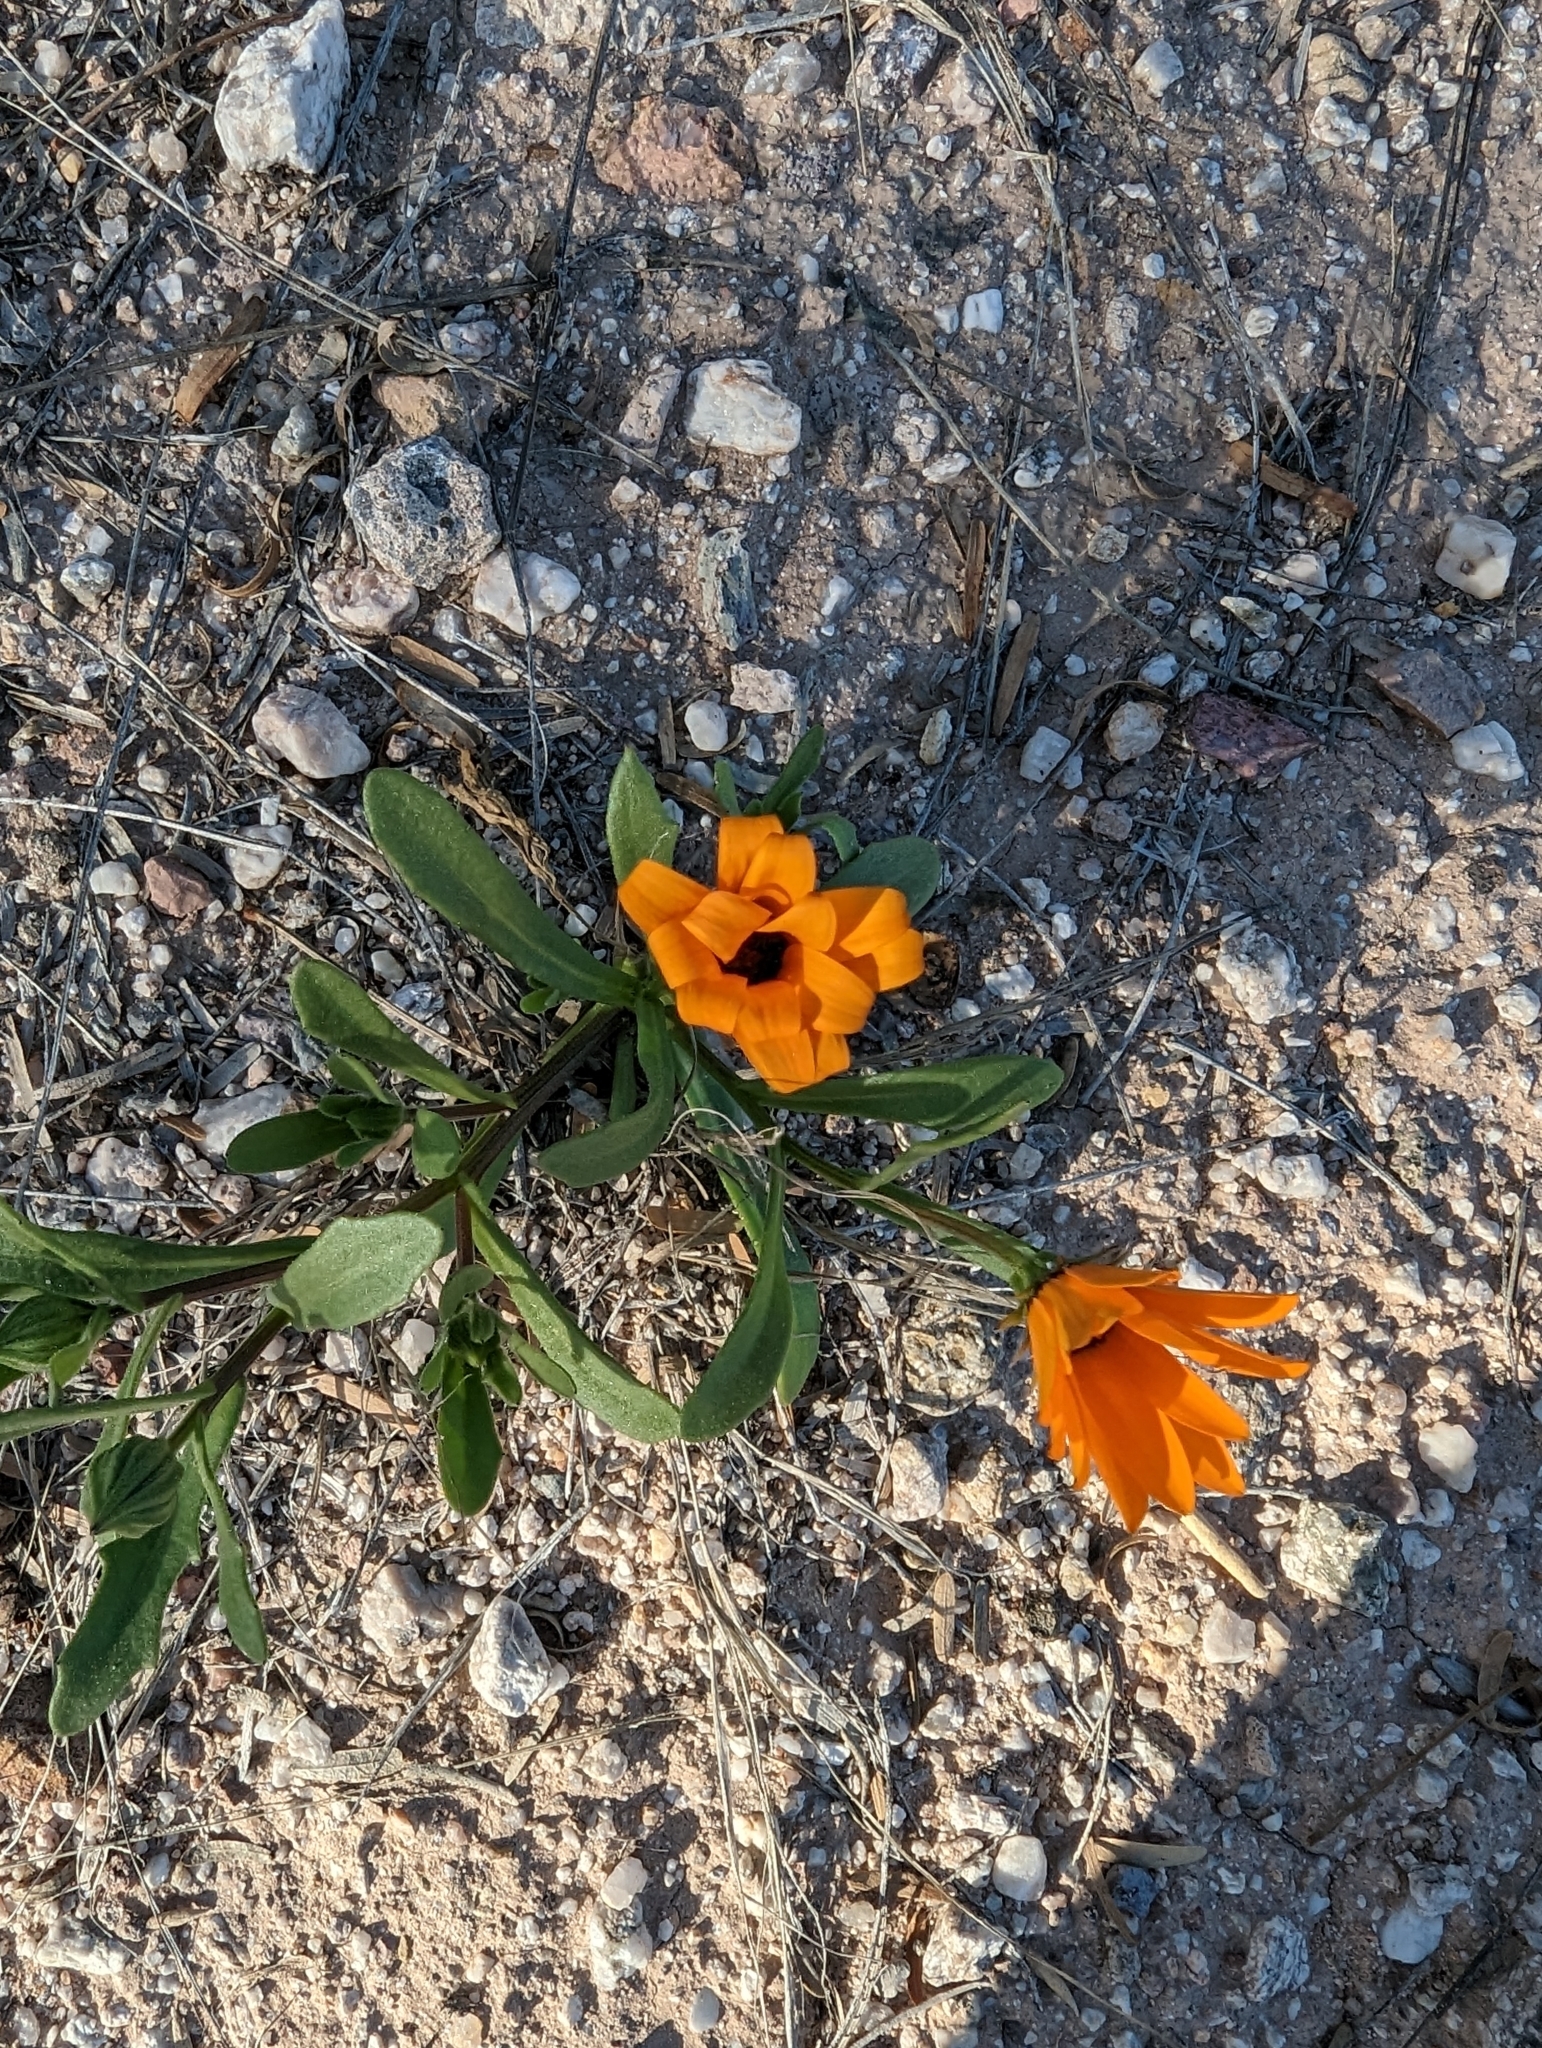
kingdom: Plantae
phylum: Tracheophyta
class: Magnoliopsida
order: Asterales
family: Asteraceae
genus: Dimorphotheca
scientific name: Dimorphotheca sinuata
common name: Glandular cape marigold
